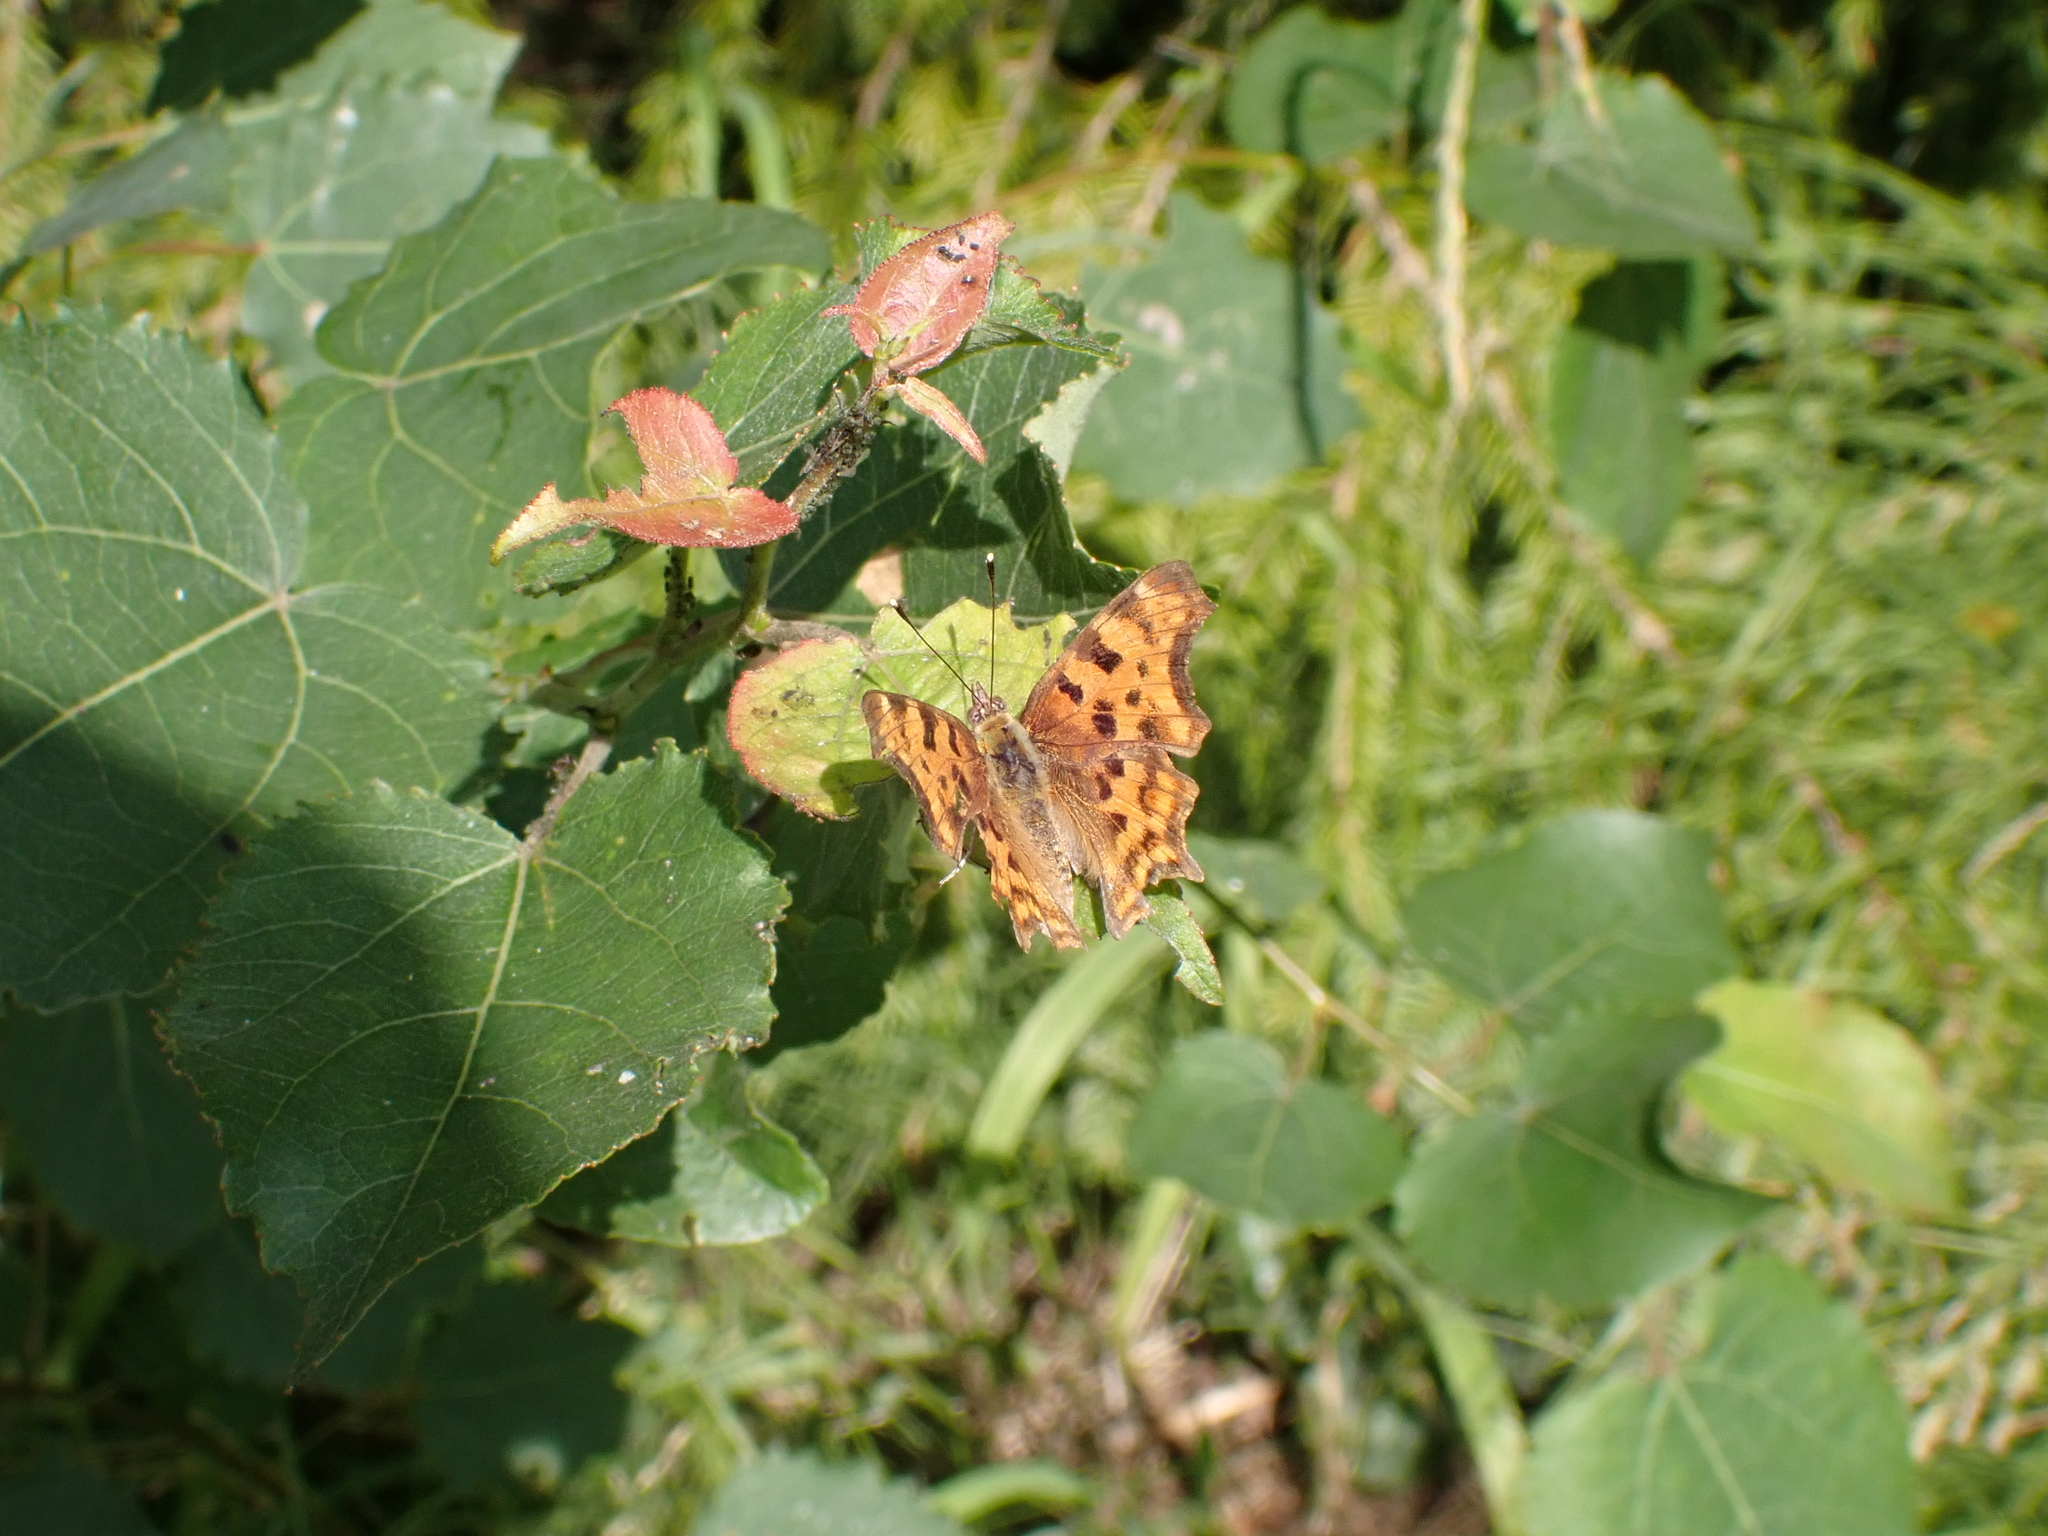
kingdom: Animalia
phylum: Arthropoda
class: Insecta
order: Lepidoptera
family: Nymphalidae
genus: Polygonia
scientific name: Polygonia c-album
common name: Comma
